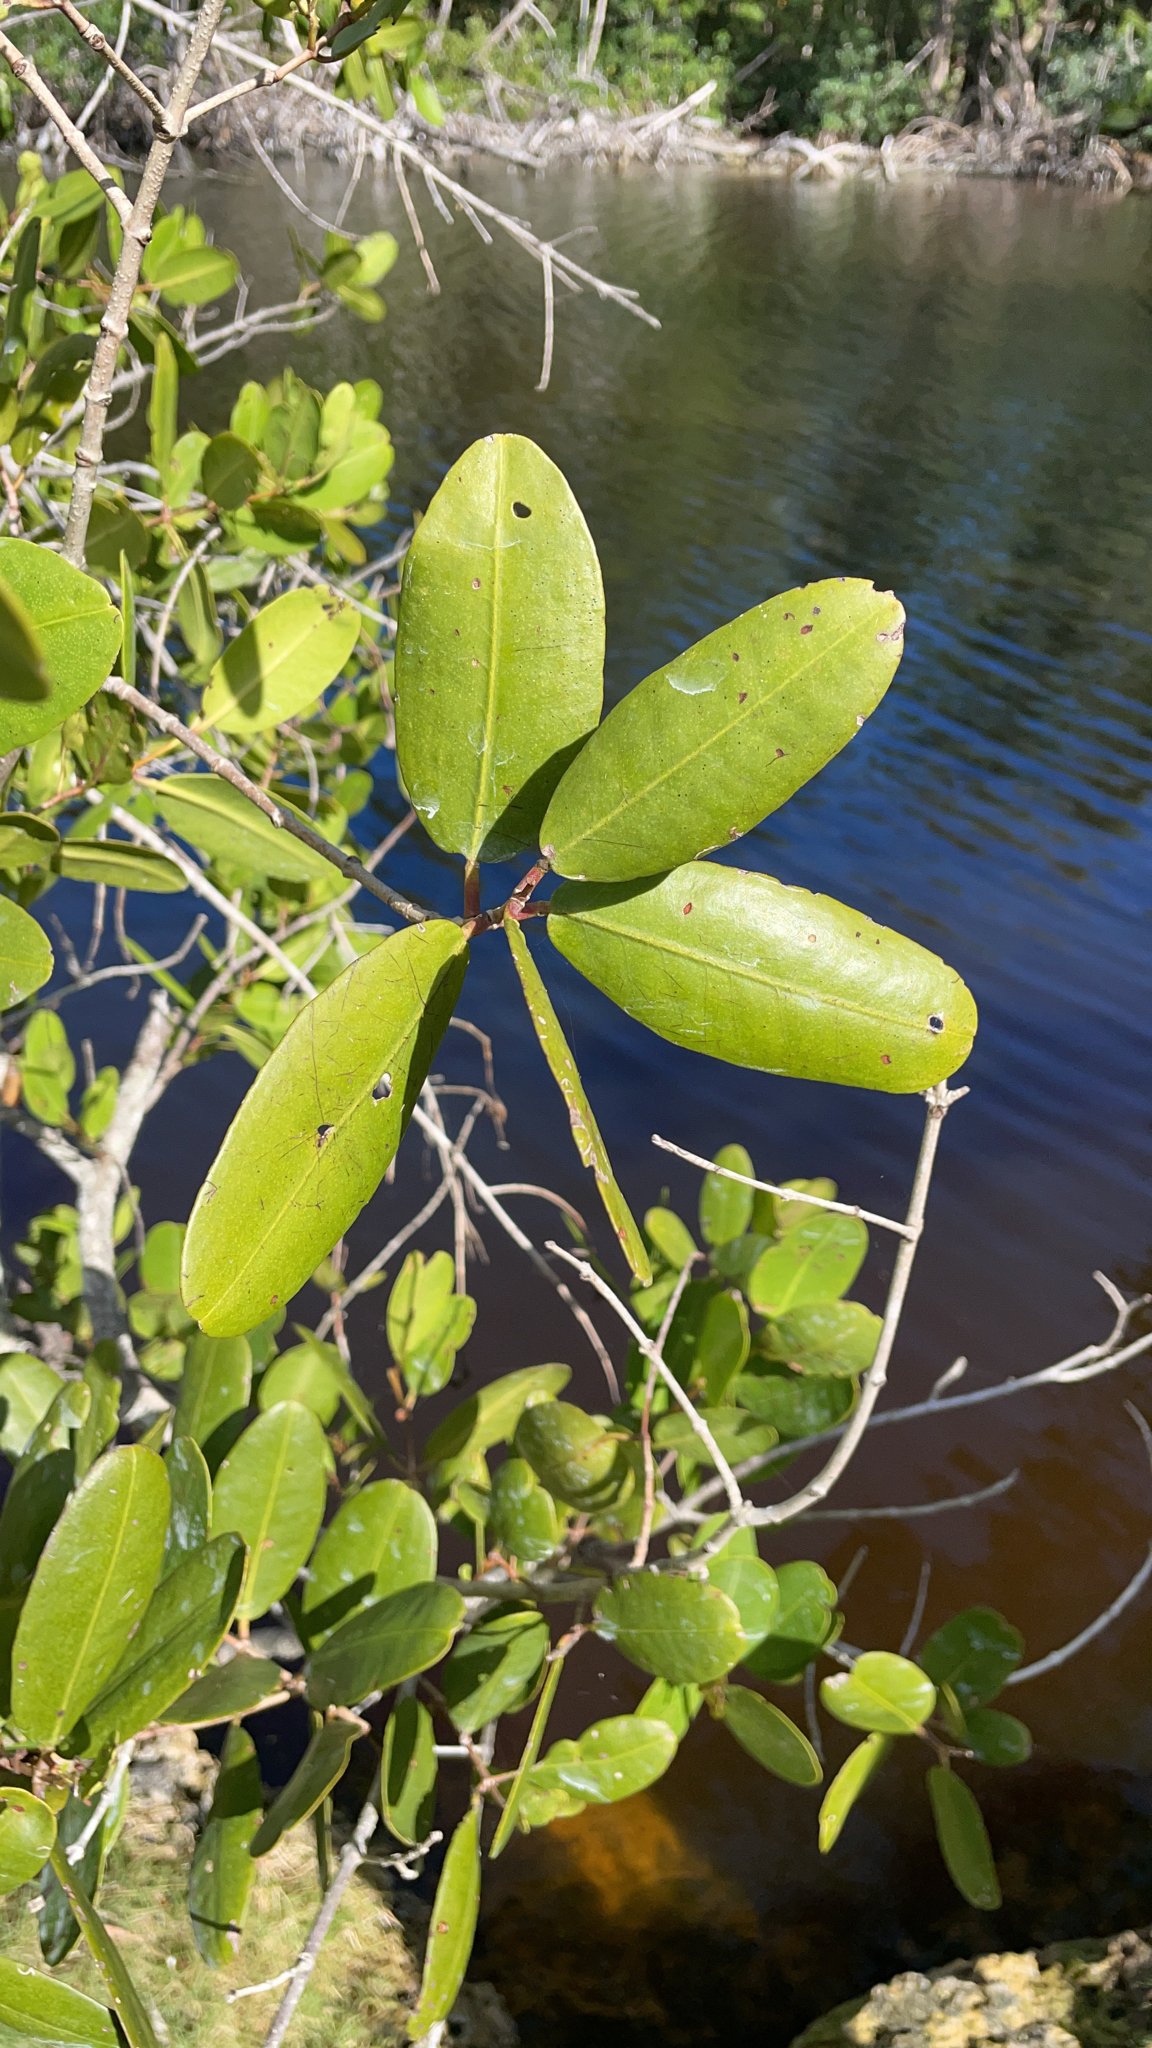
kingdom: Plantae
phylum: Tracheophyta
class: Magnoliopsida
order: Myrtales
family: Combretaceae
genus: Laguncularia
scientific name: Laguncularia racemosa
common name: White mangrove
